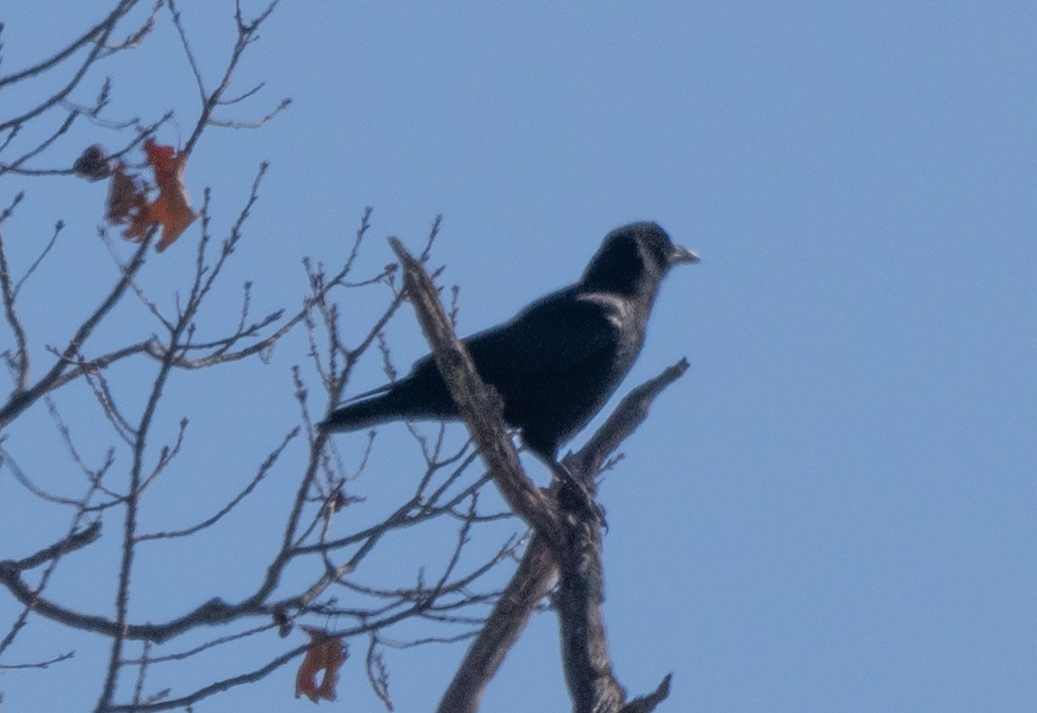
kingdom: Animalia
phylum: Chordata
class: Aves
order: Passeriformes
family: Corvidae
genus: Corvus
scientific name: Corvus brachyrhynchos
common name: American crow
